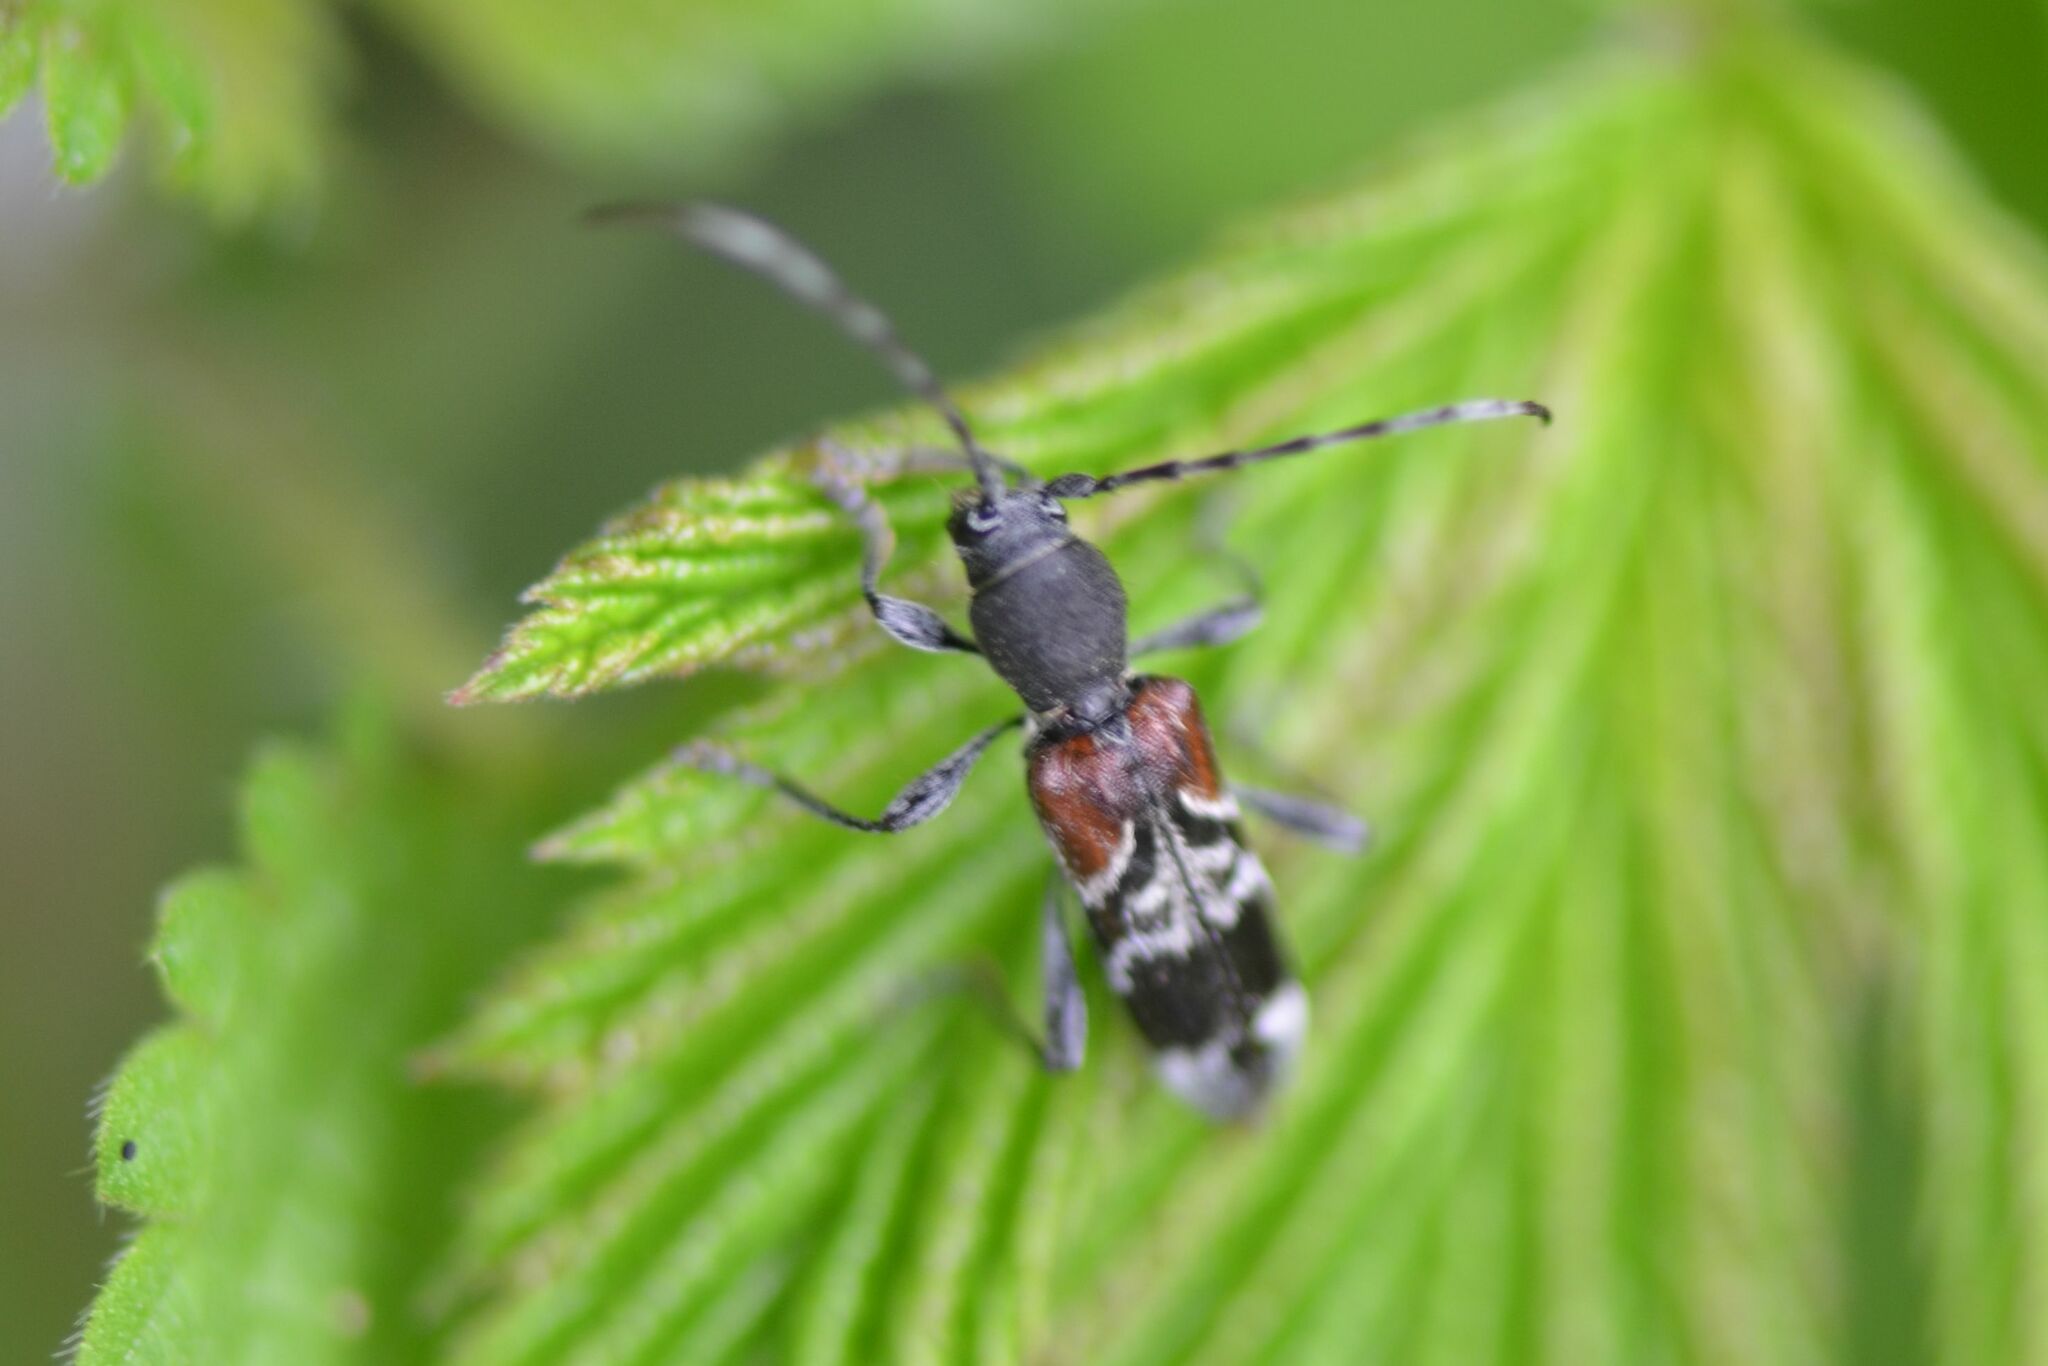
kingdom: Animalia
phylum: Arthropoda
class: Insecta
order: Coleoptera
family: Cerambycidae
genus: Anaglyptus
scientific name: Anaglyptus mysticus
